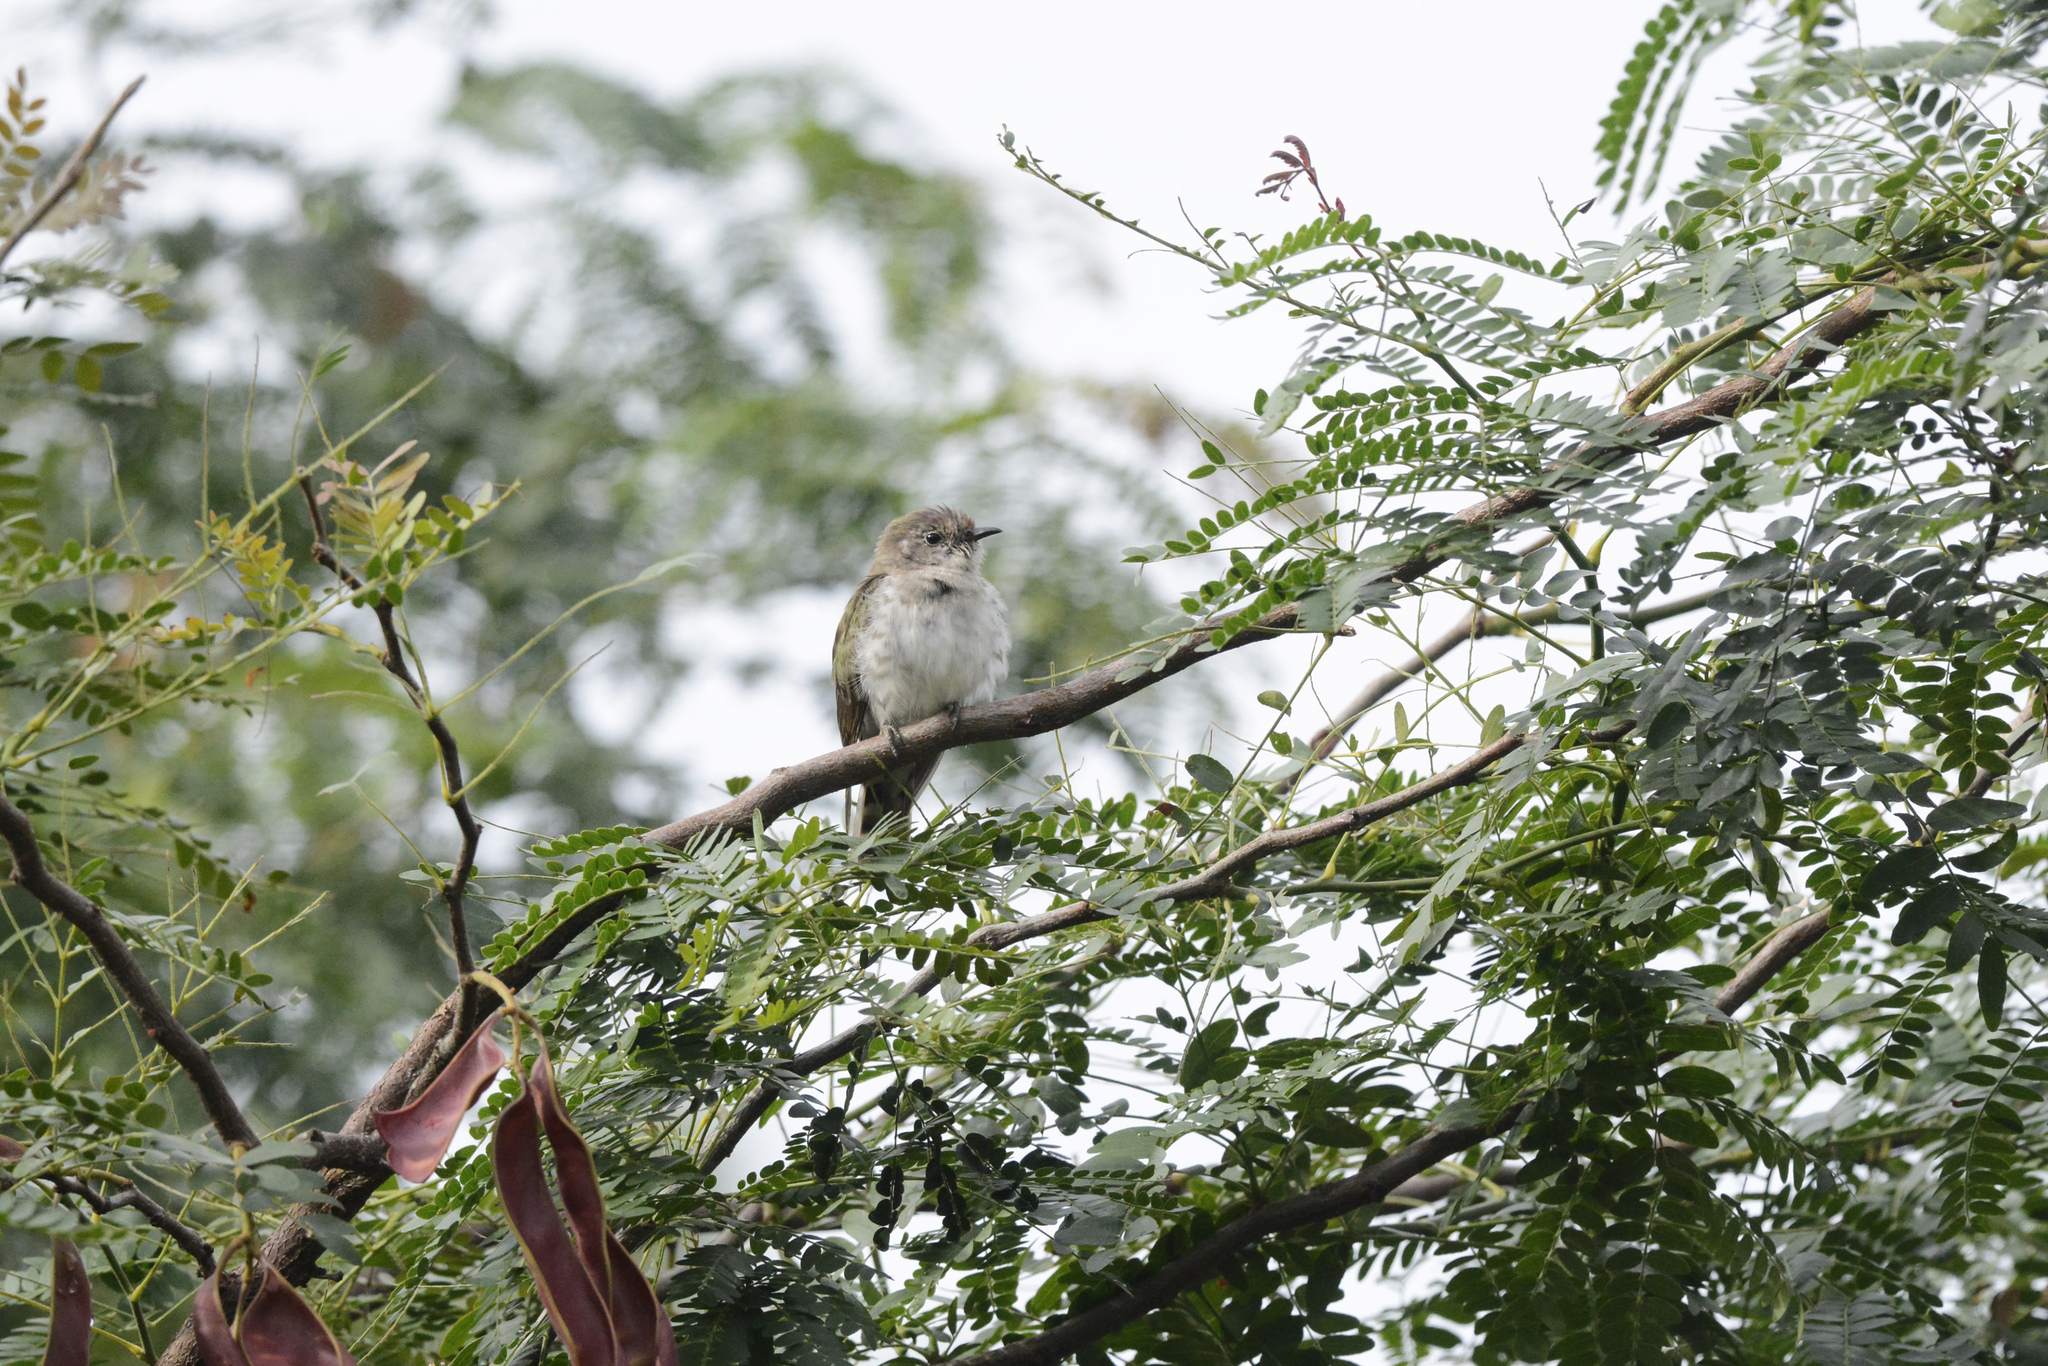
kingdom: Animalia
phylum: Chordata
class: Aves
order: Cuculiformes
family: Cuculidae
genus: Chrysococcyx
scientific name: Chrysococcyx lucidus
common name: Shining bronze cuckoo
